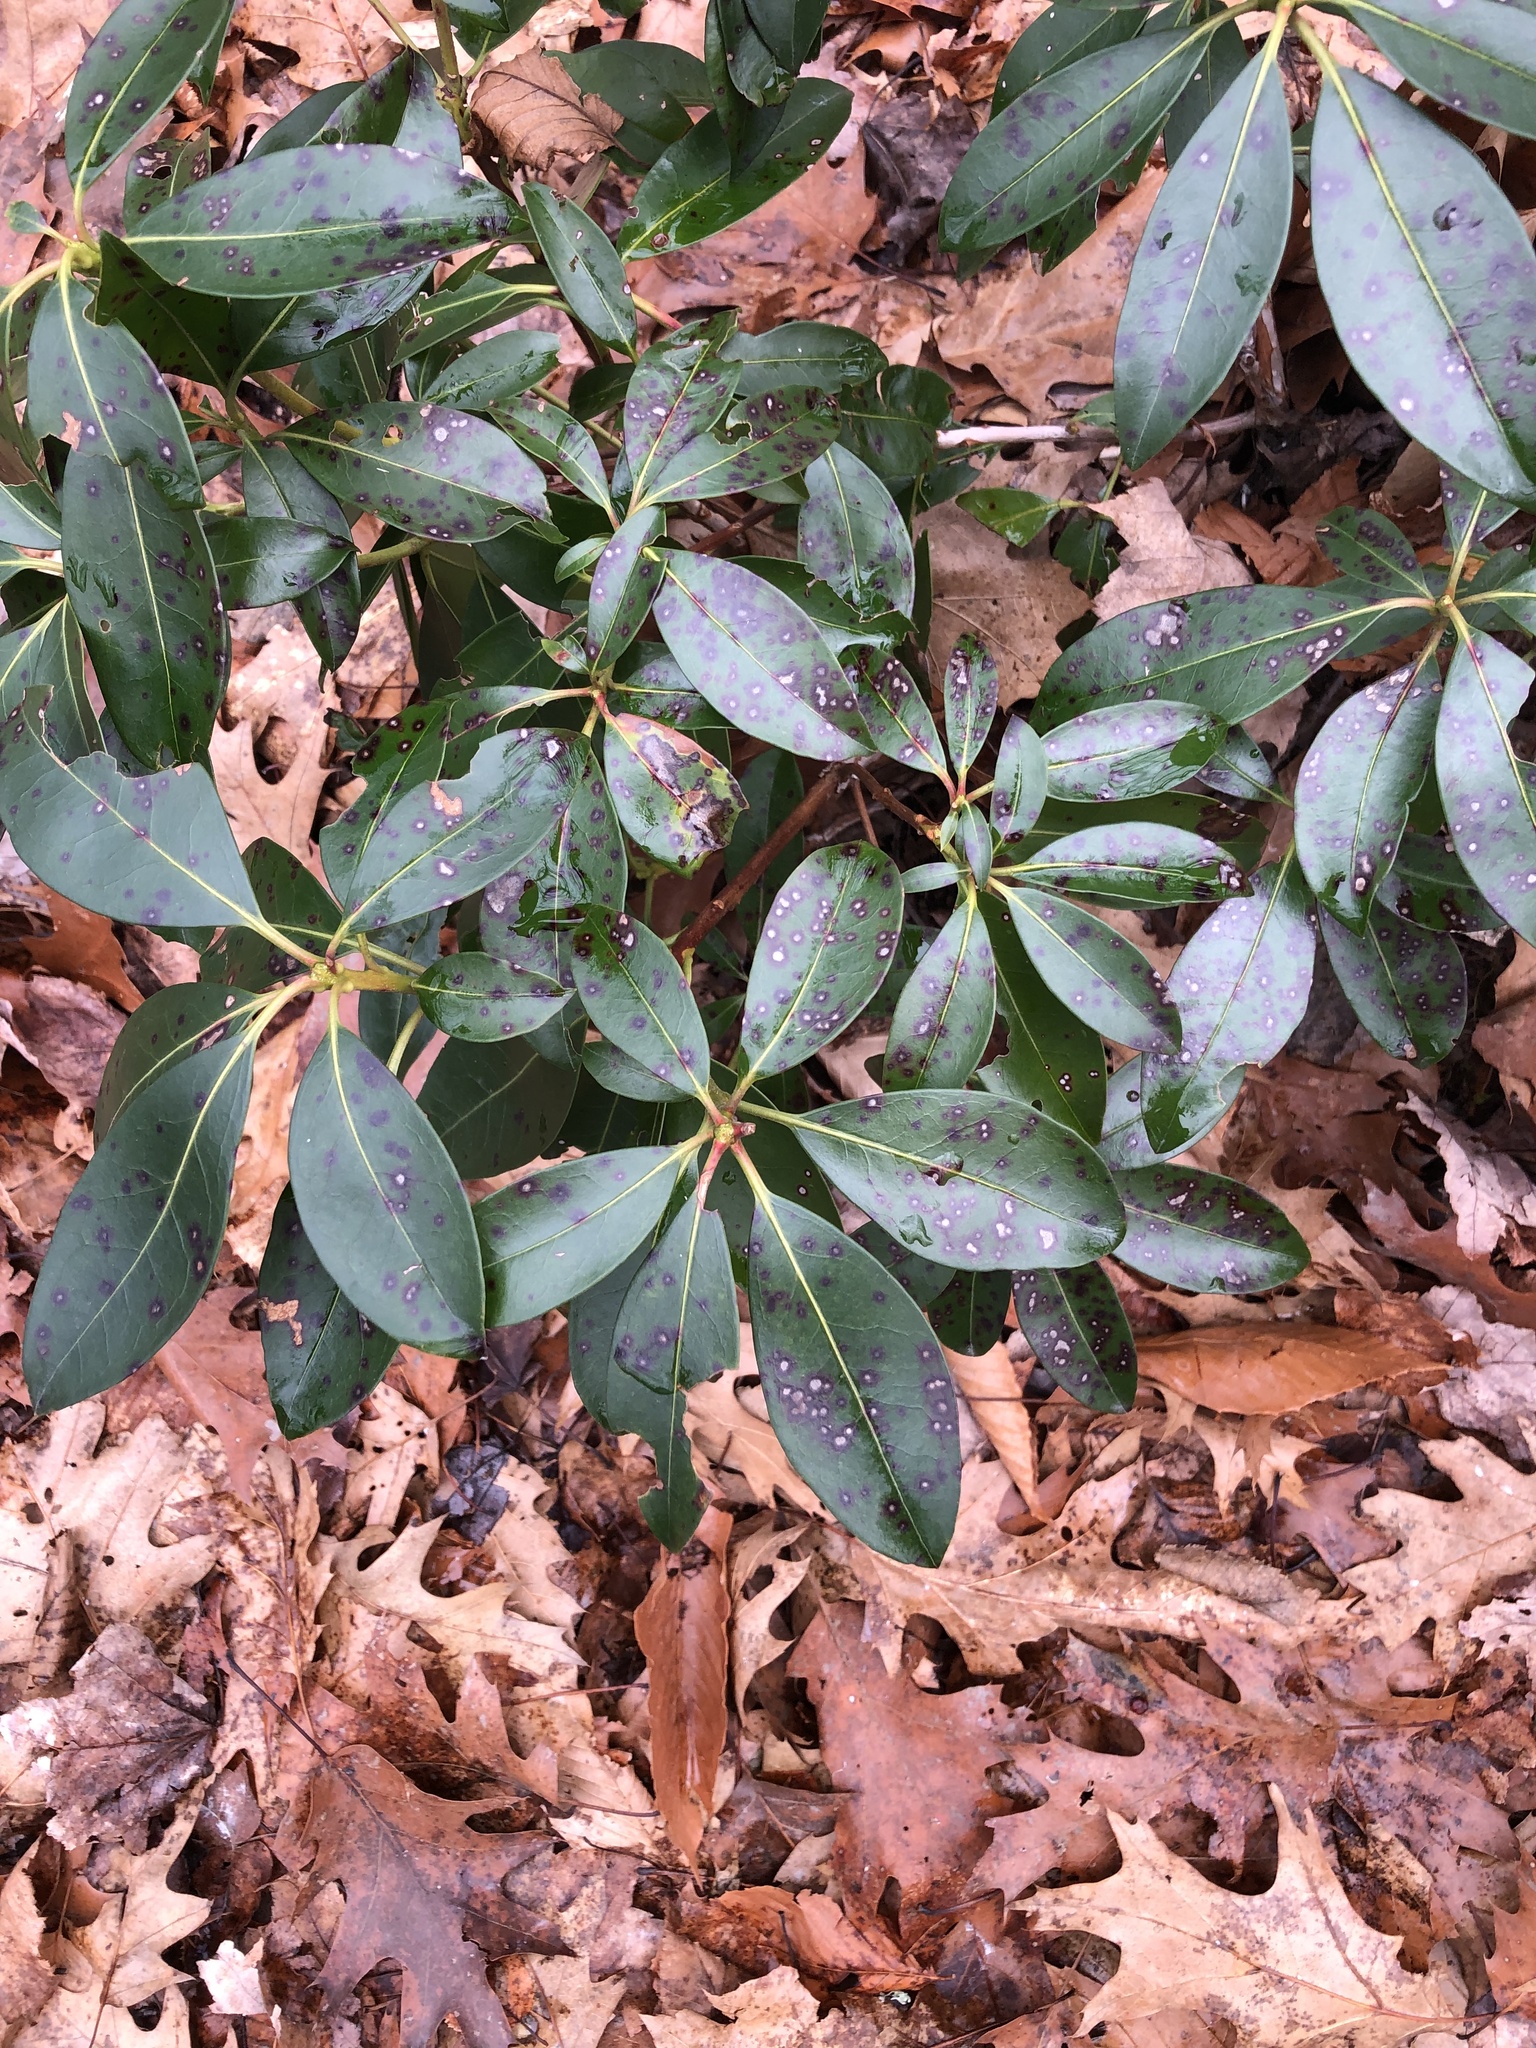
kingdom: Plantae
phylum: Tracheophyta
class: Magnoliopsida
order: Ericales
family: Ericaceae
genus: Kalmia
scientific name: Kalmia latifolia
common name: Mountain-laurel
